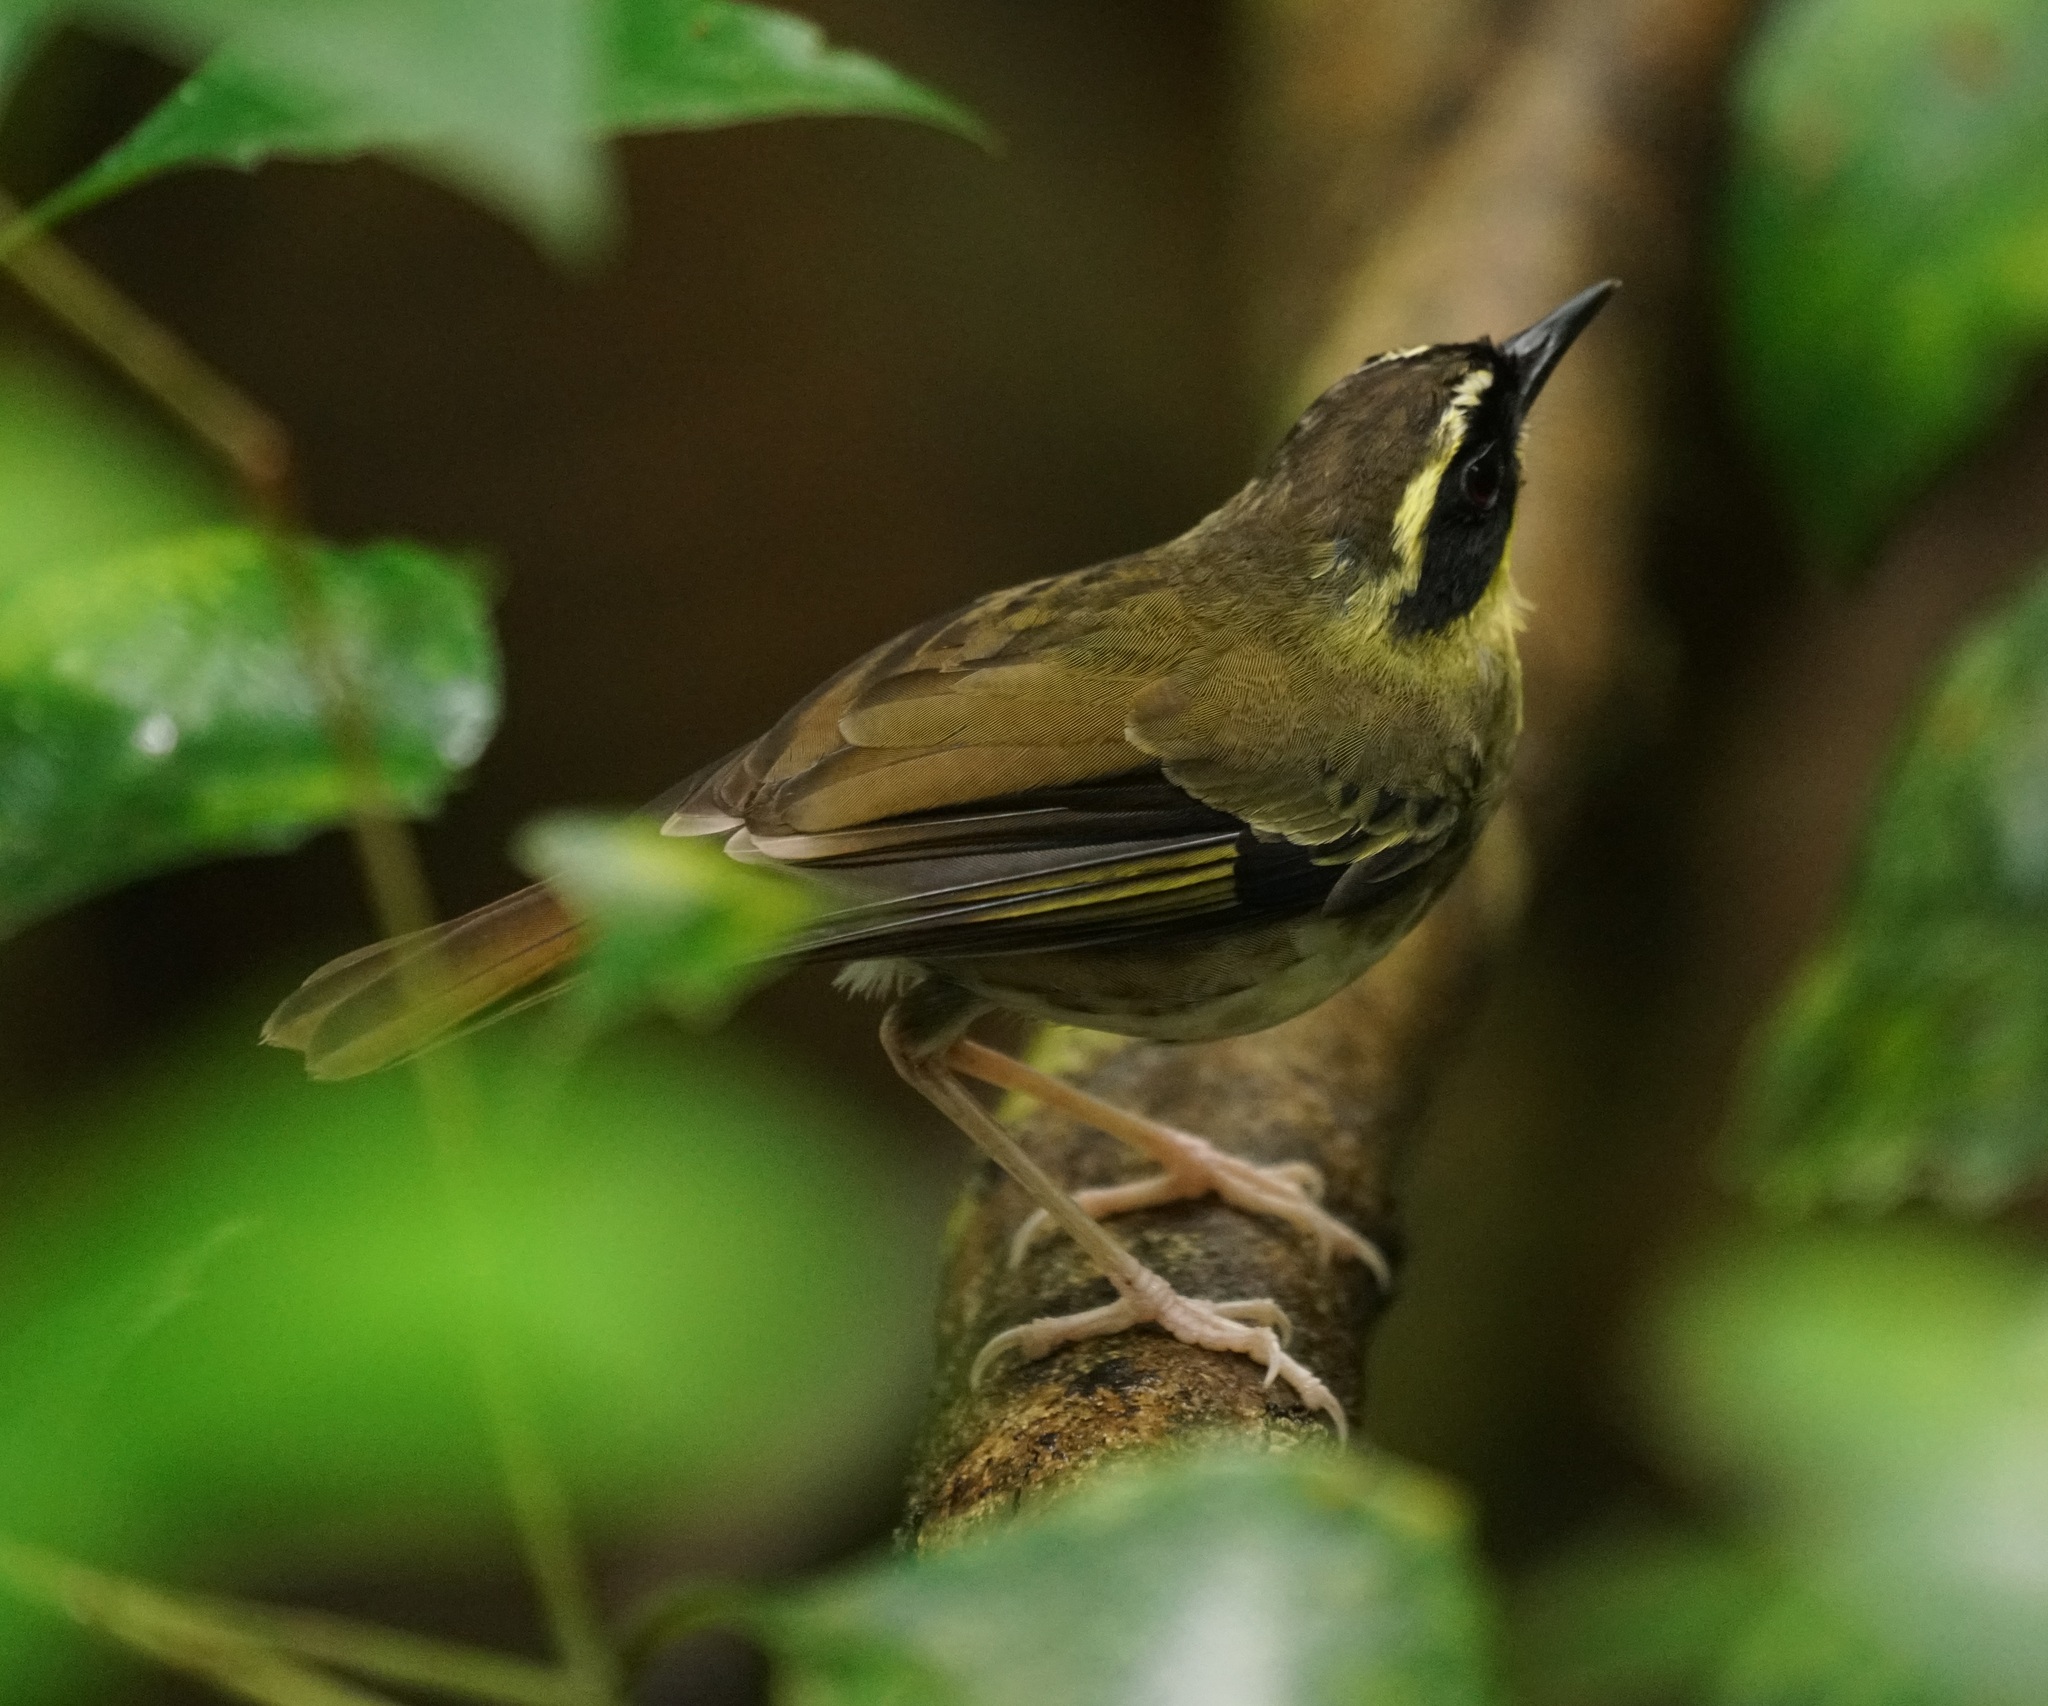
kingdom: Animalia
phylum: Chordata
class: Aves
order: Passeriformes
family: Acanthizidae
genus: Sericornis
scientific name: Sericornis citreogularis
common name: Yellow-throated scrubwren
